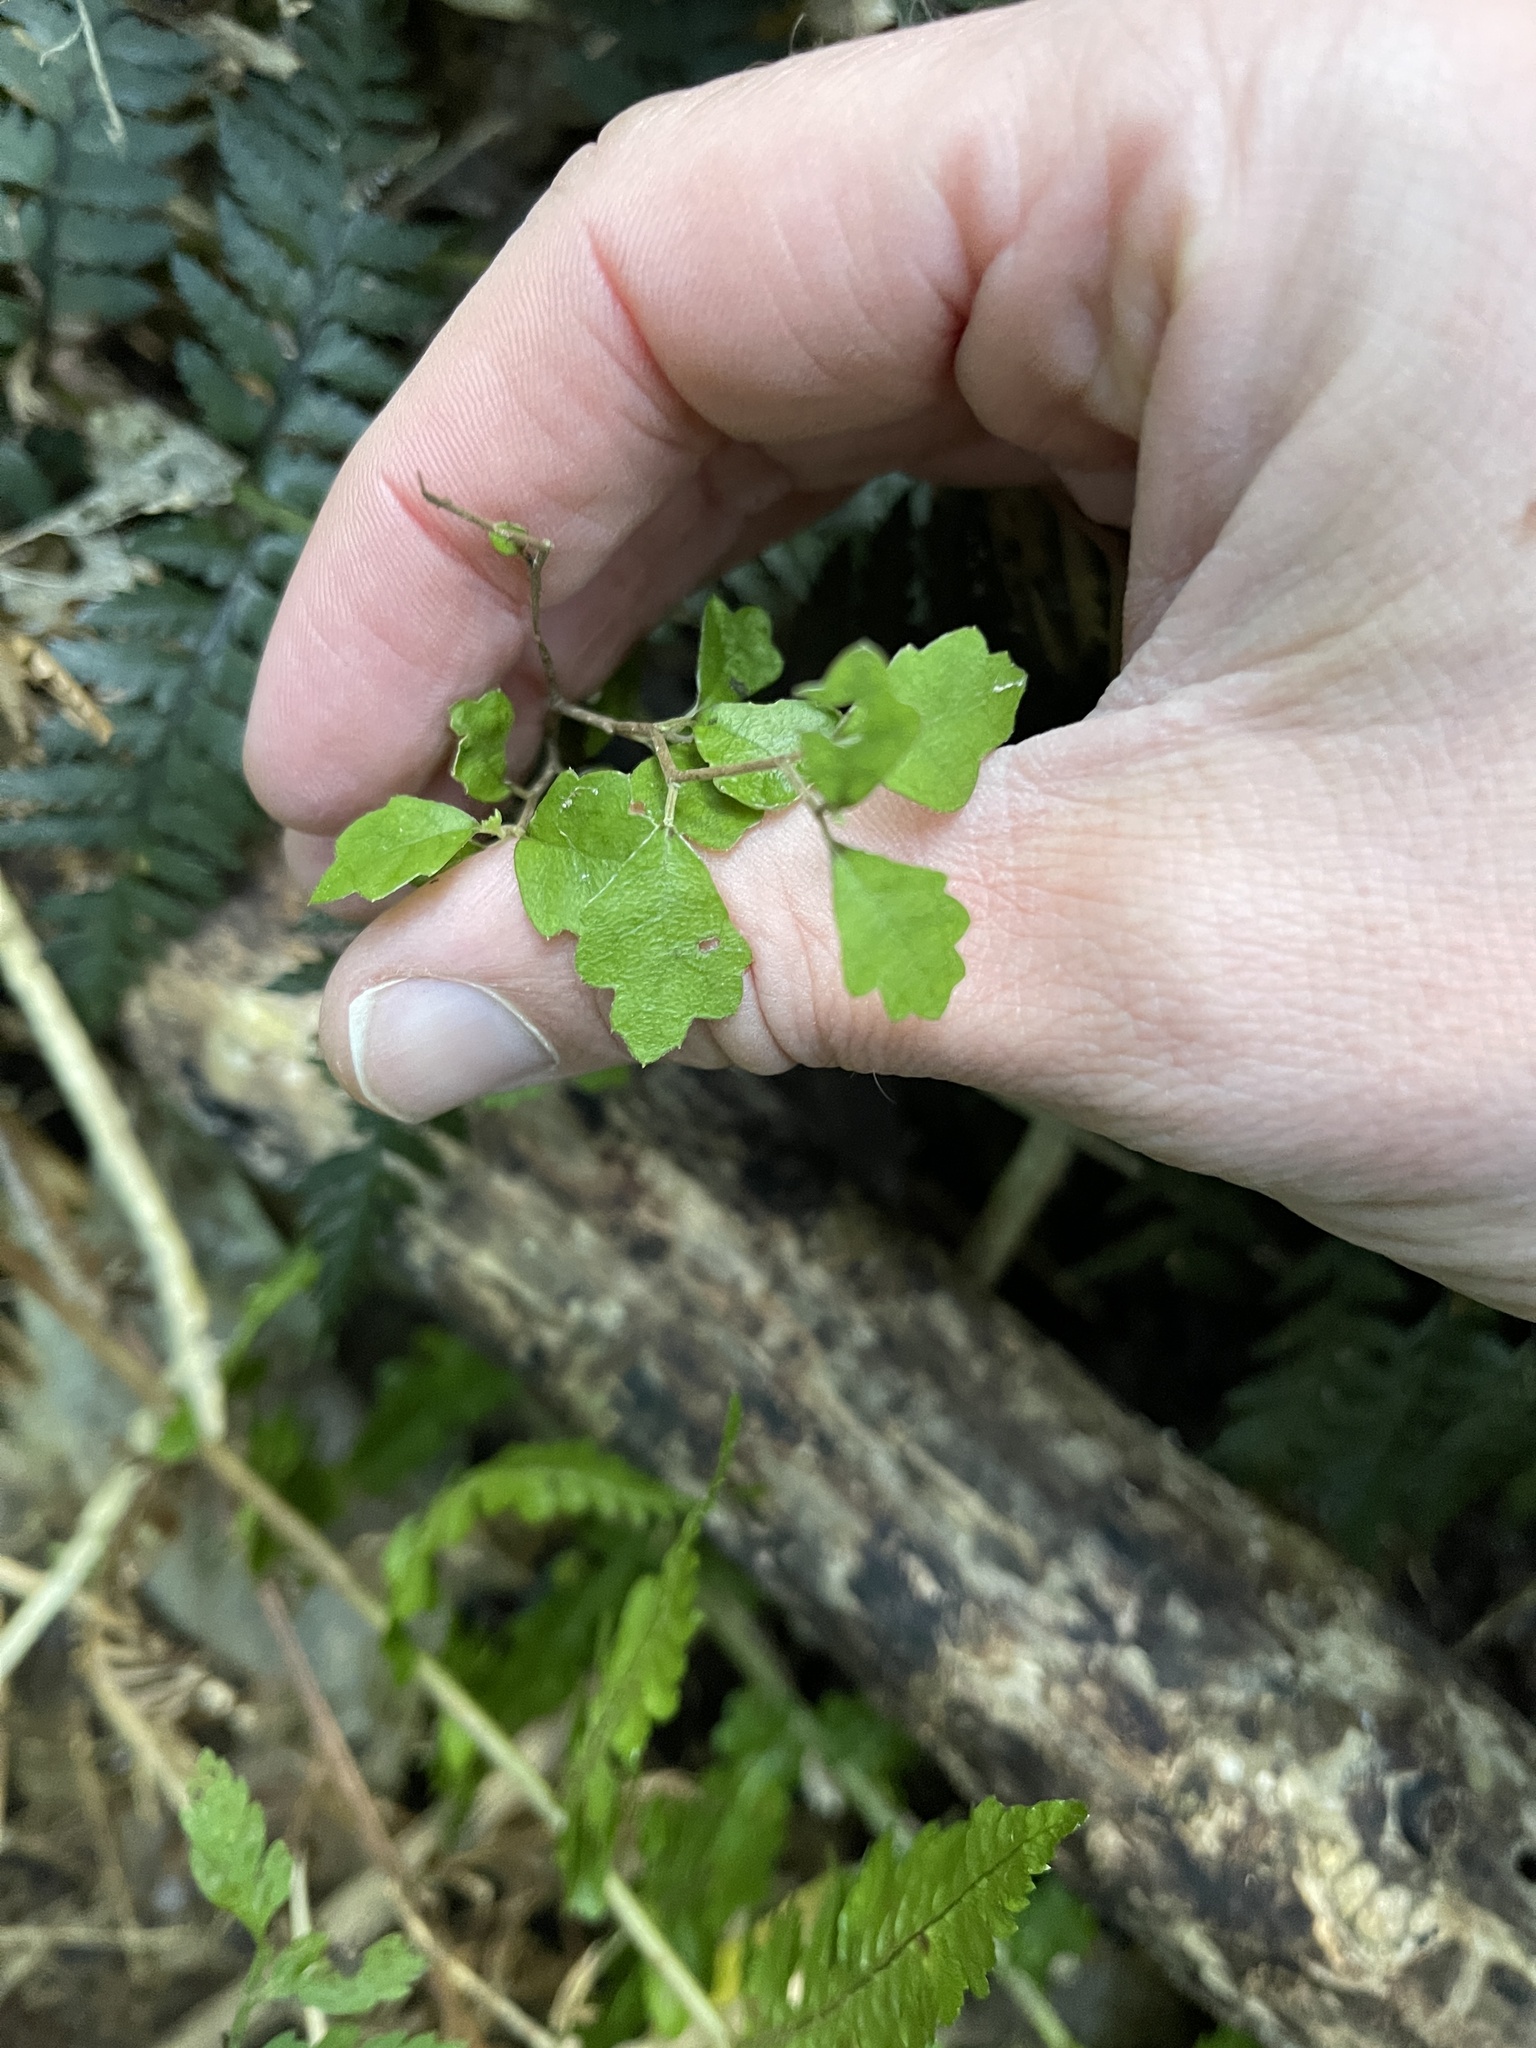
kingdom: Plantae
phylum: Tracheophyta
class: Magnoliopsida
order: Apiales
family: Pennantiaceae
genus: Pennantia
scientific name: Pennantia corymbosa
